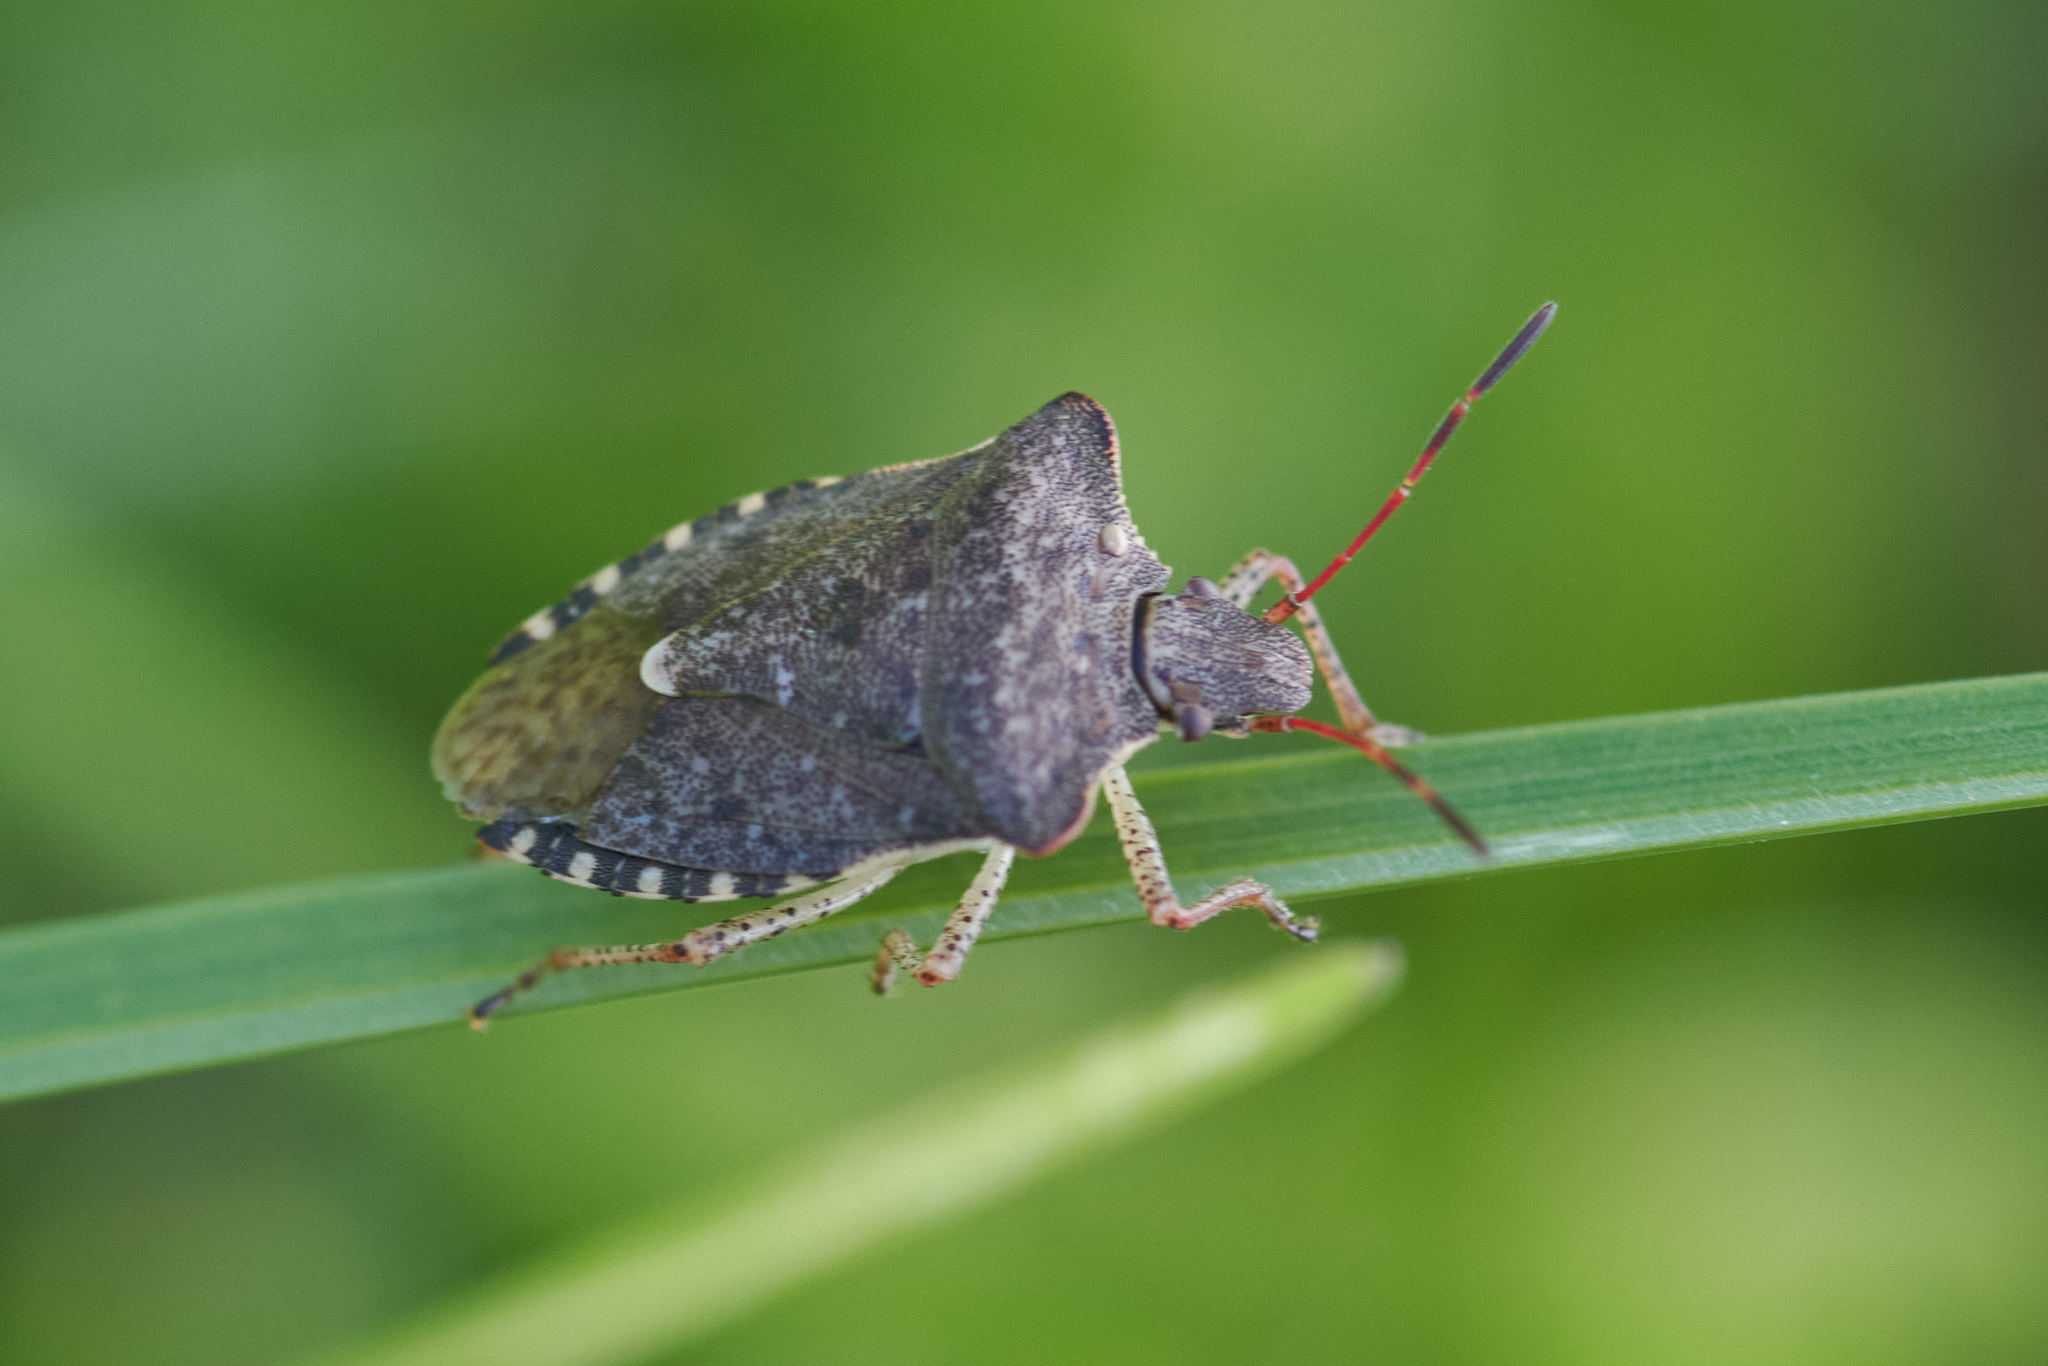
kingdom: Animalia
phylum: Arthropoda
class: Insecta
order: Hemiptera
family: Pentatomidae
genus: Euschistus
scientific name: Euschistus servus
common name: Brown stink bug
